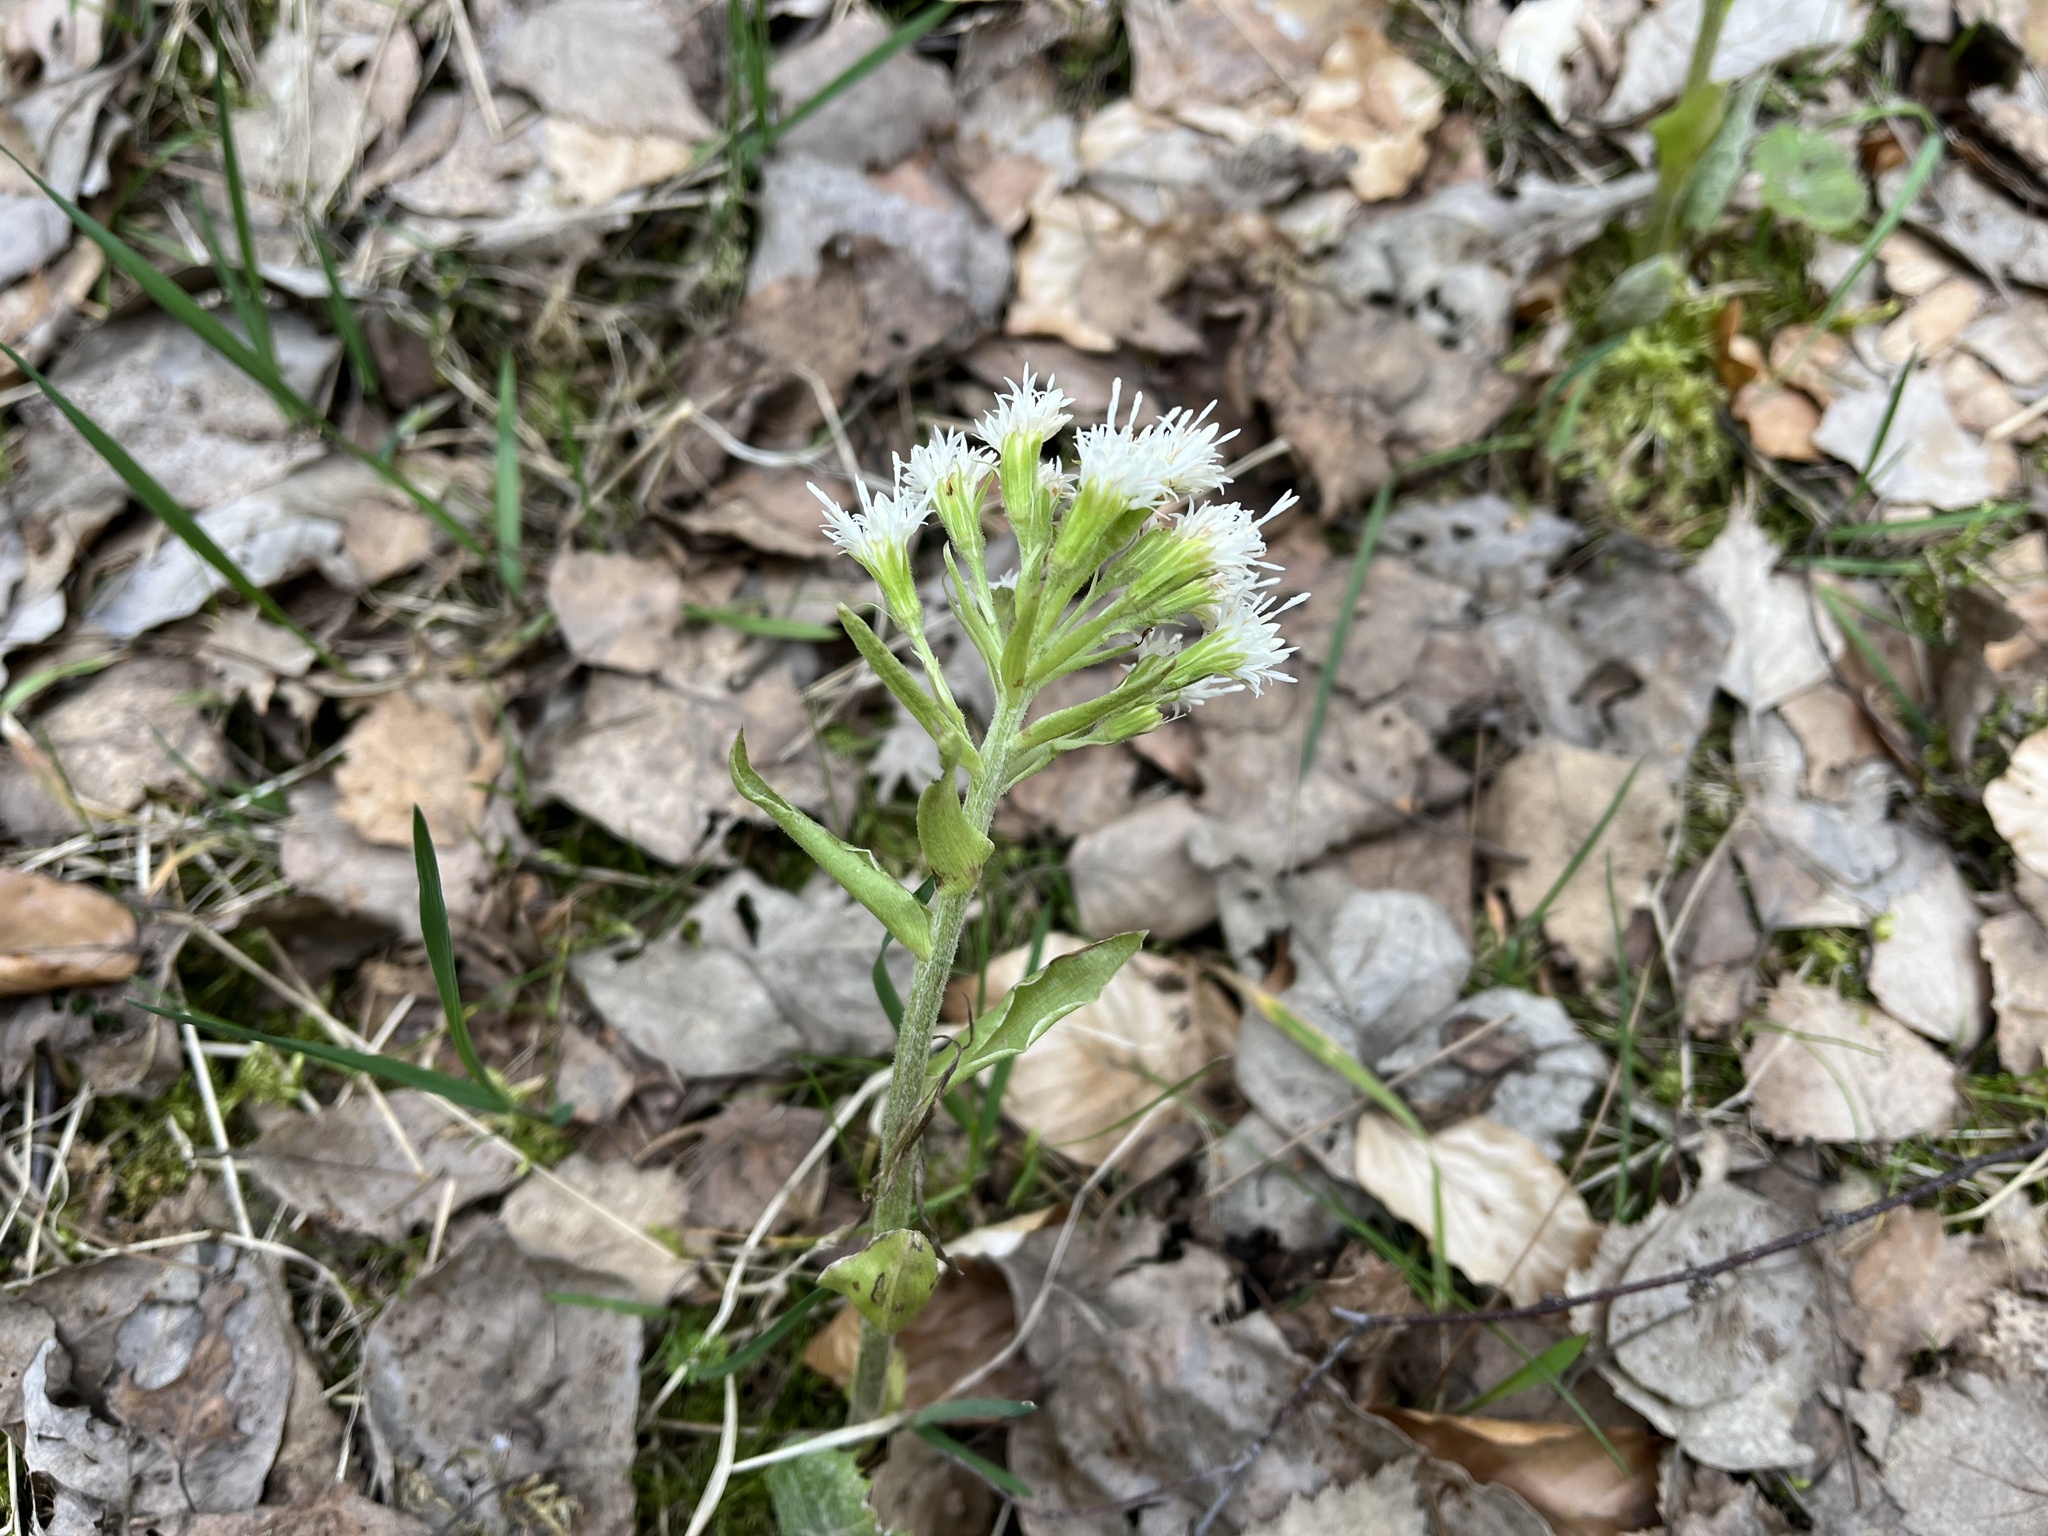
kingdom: Plantae
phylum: Tracheophyta
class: Magnoliopsida
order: Asterales
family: Asteraceae
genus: Petasites
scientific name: Petasites albus
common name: White butterbur
